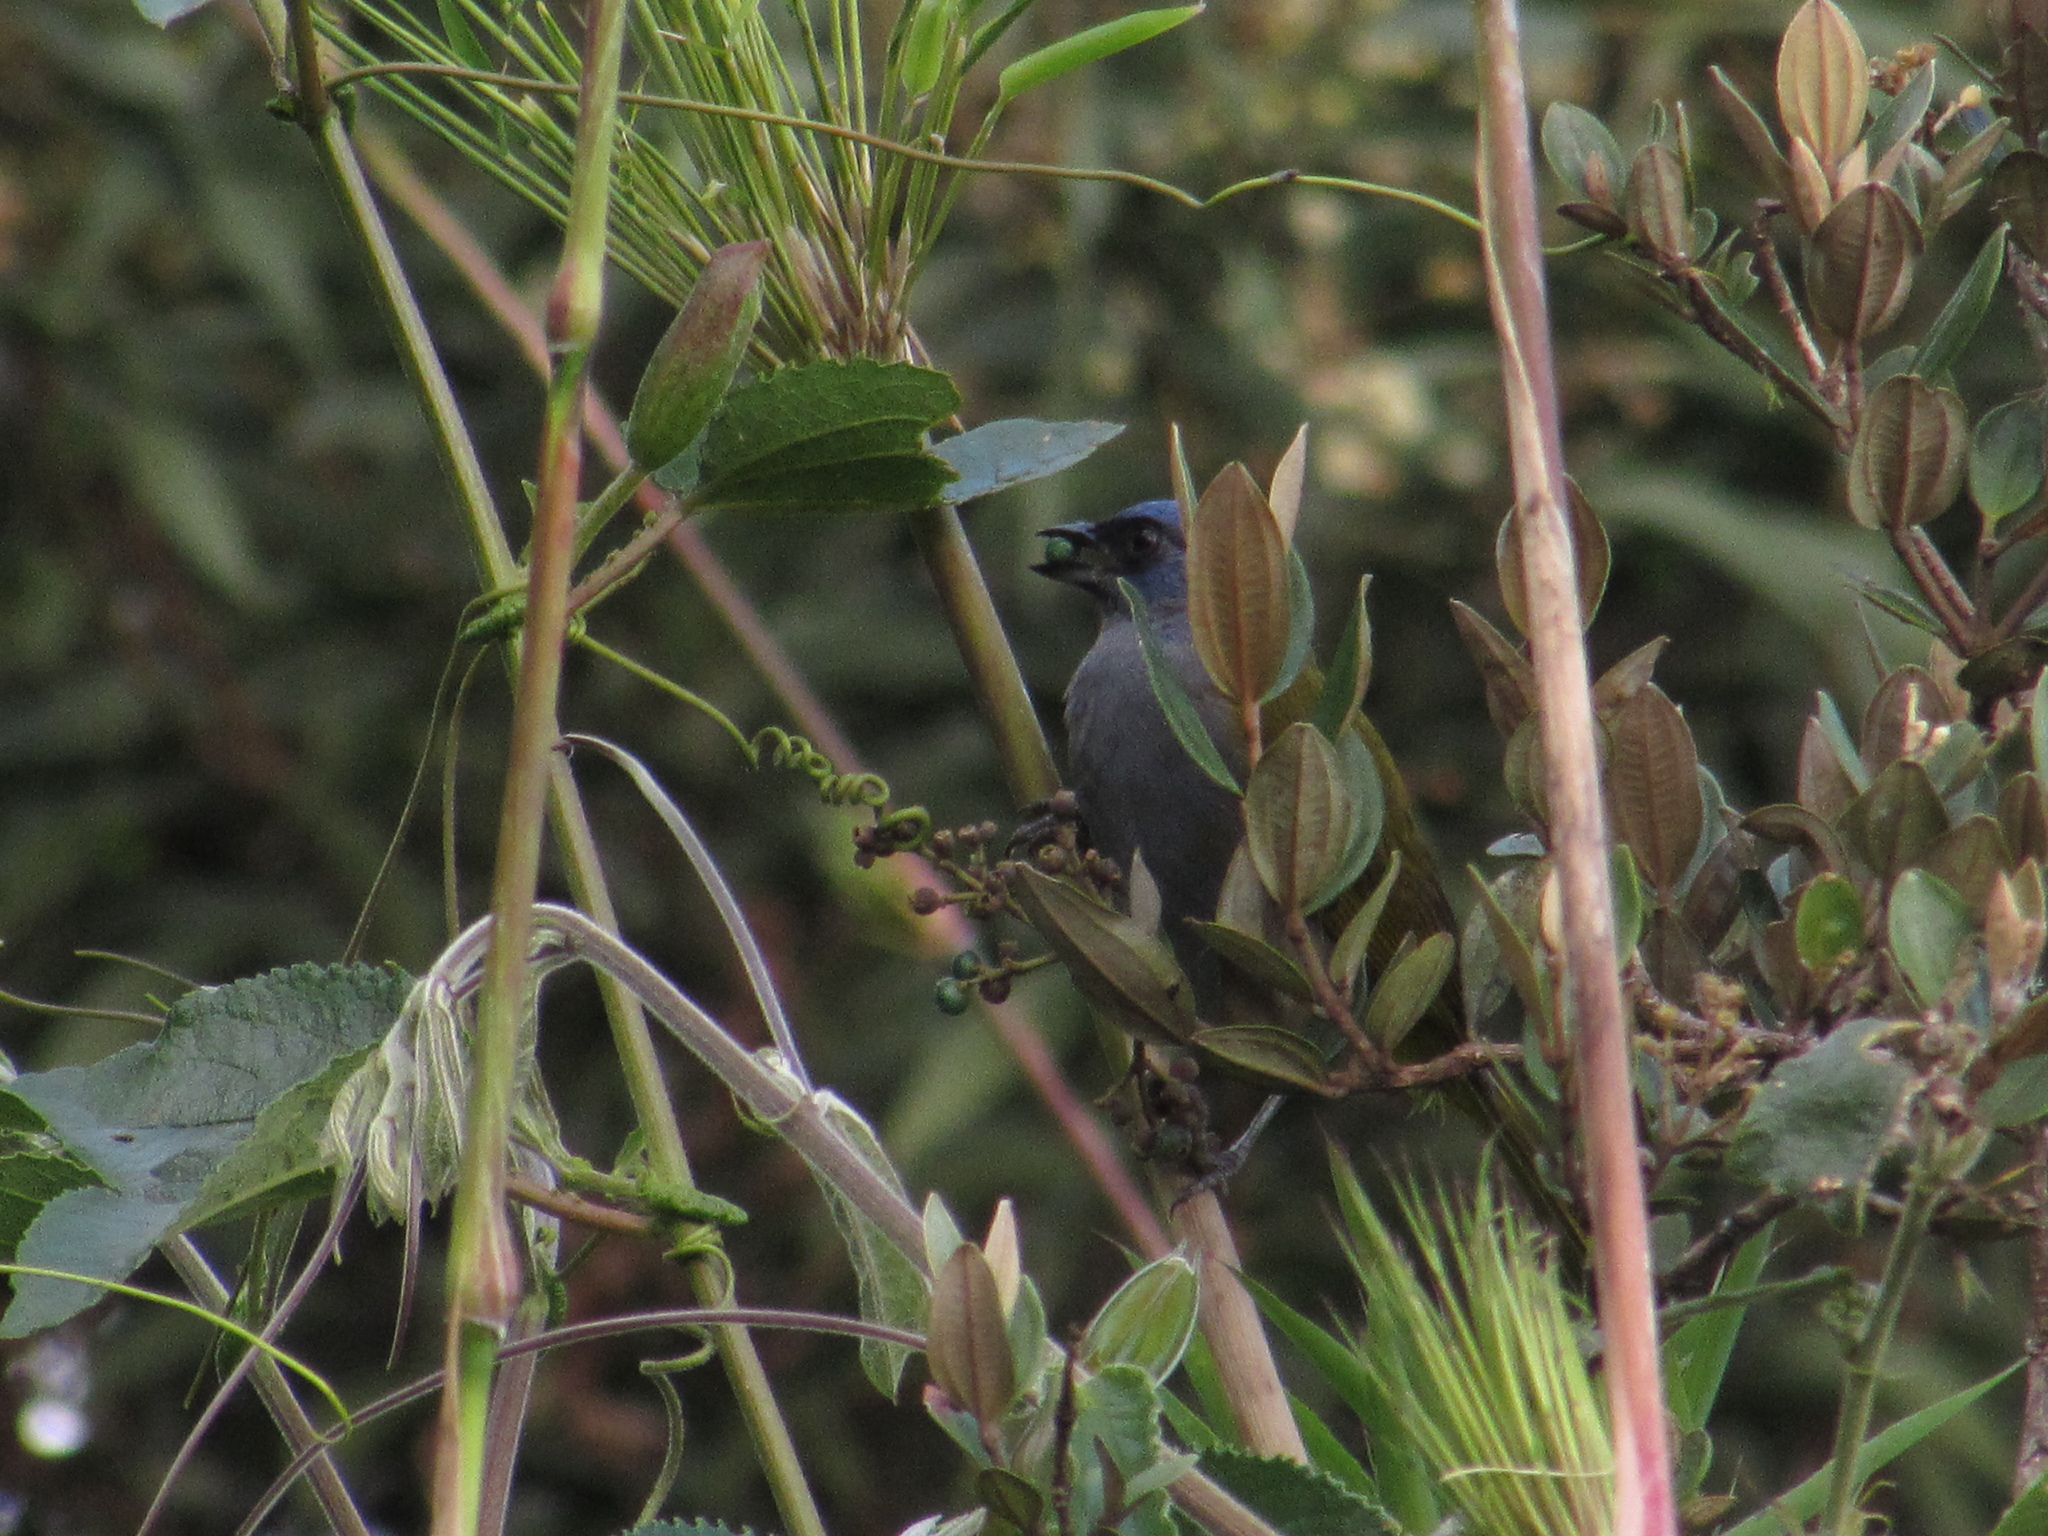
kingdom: Animalia
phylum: Chordata
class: Aves
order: Passeriformes
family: Thraupidae
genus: Sporathraupis
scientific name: Sporathraupis cyanocephala
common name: Blue-capped tanager
